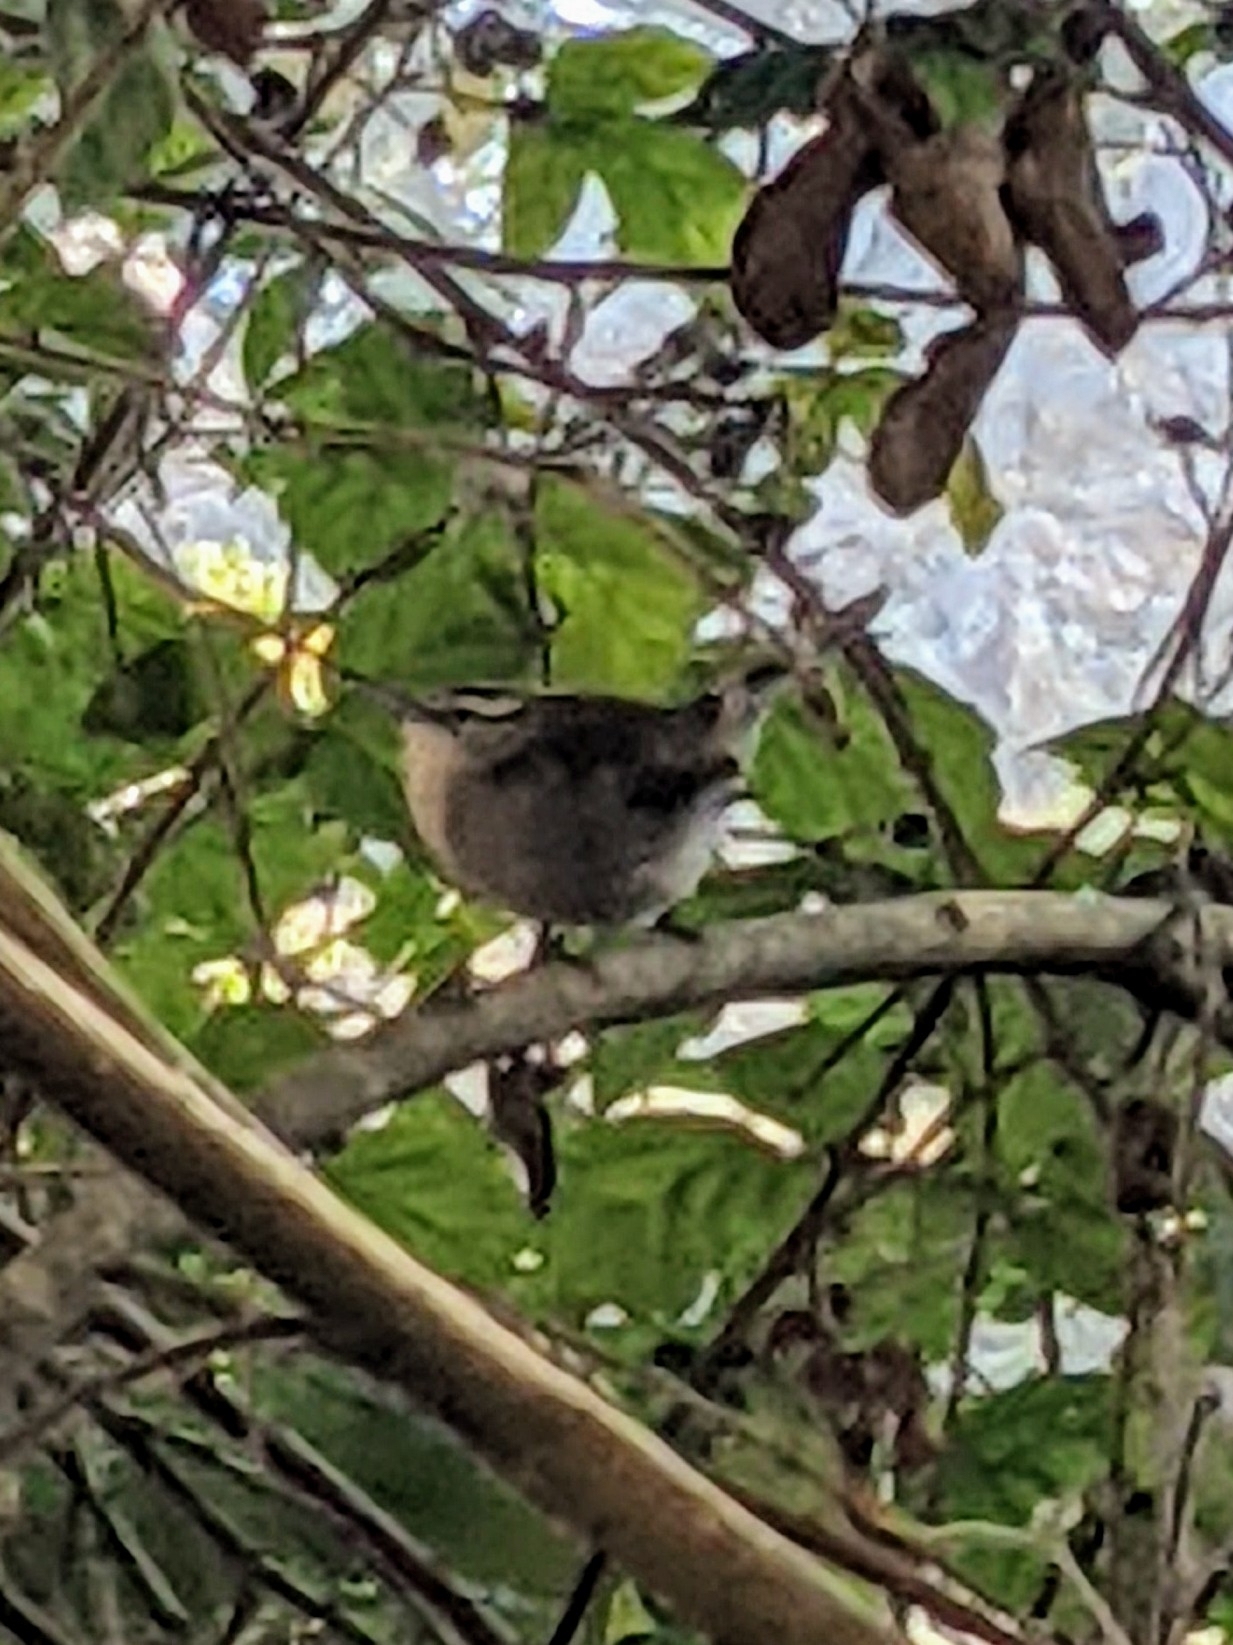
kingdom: Animalia
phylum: Chordata
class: Aves
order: Passeriformes
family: Troglodytidae
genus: Thryomanes
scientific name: Thryomanes bewickii
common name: Bewick's wren
